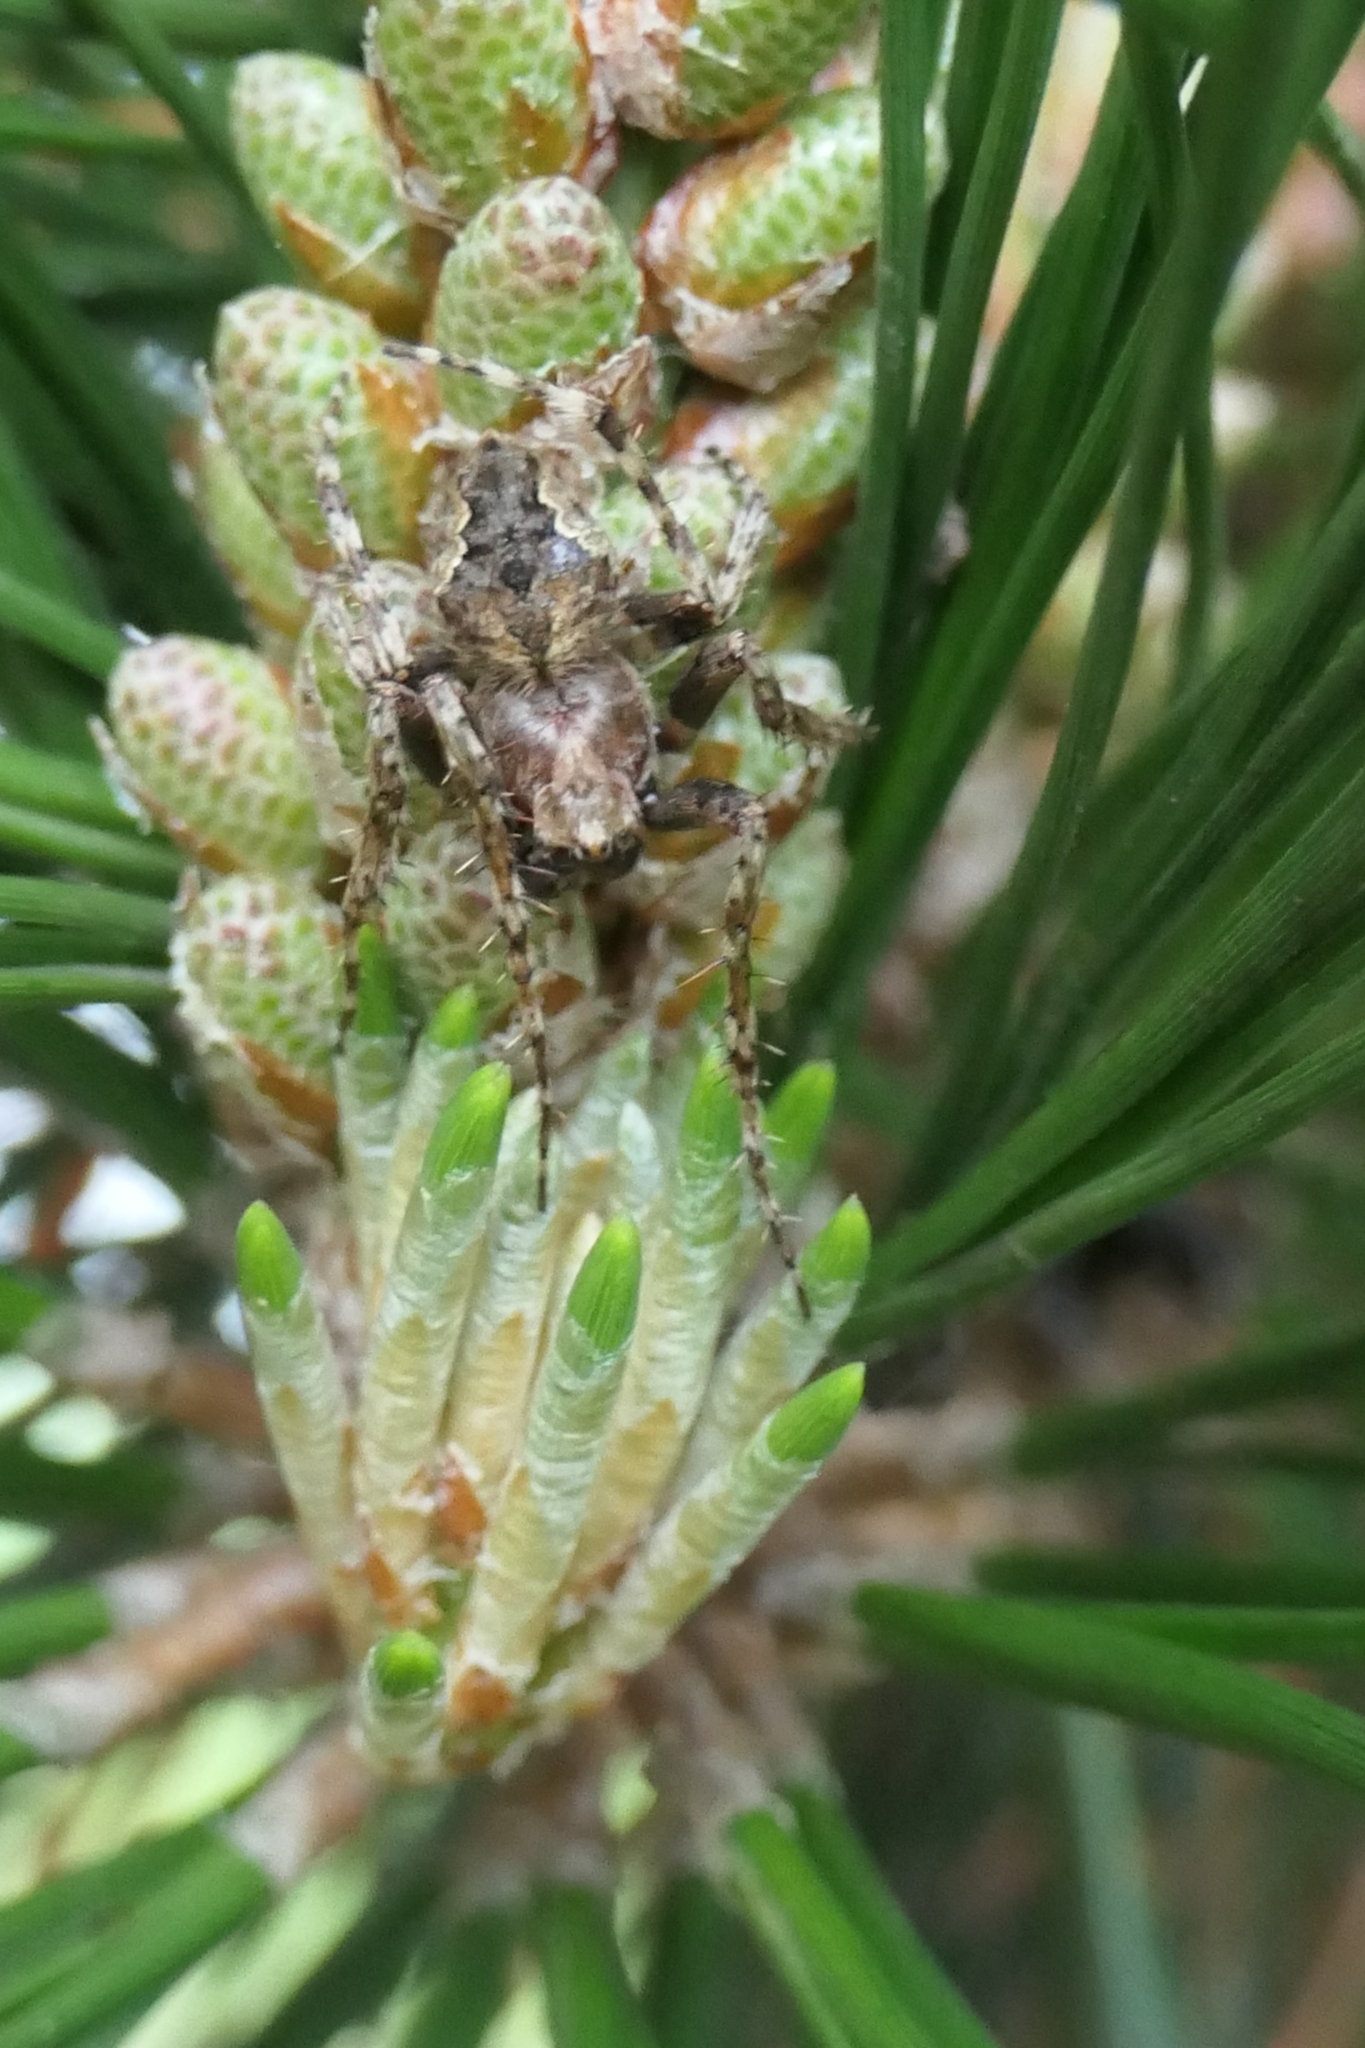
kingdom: Animalia
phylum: Arthropoda
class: Arachnida
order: Araneae
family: Araneidae
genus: Eriophora
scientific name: Eriophora pustulosa
